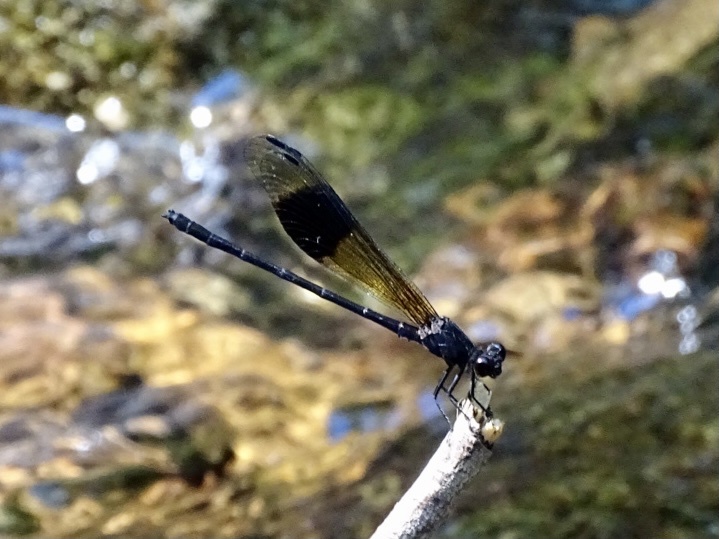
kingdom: Animalia
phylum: Arthropoda
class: Insecta
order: Odonata
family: Euphaeidae
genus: Euphaea
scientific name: Euphaea decorata
